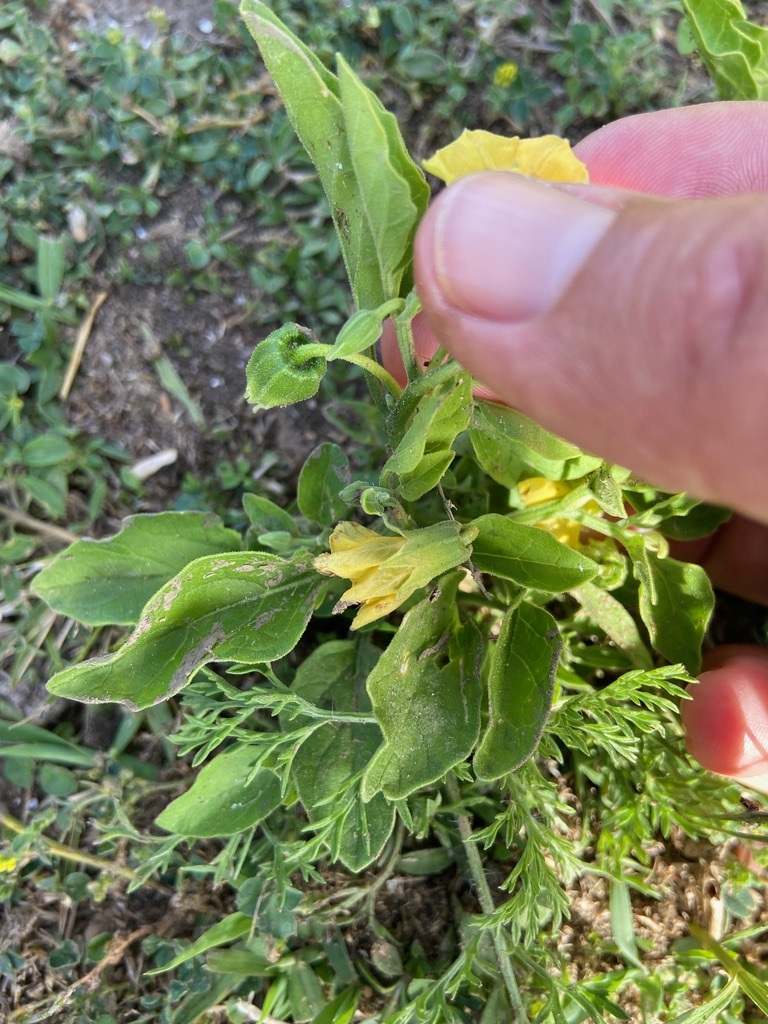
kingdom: Plantae
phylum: Tracheophyta
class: Magnoliopsida
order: Solanales
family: Solanaceae
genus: Physalis
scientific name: Physalis viscosa
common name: Stellate ground-cherry
